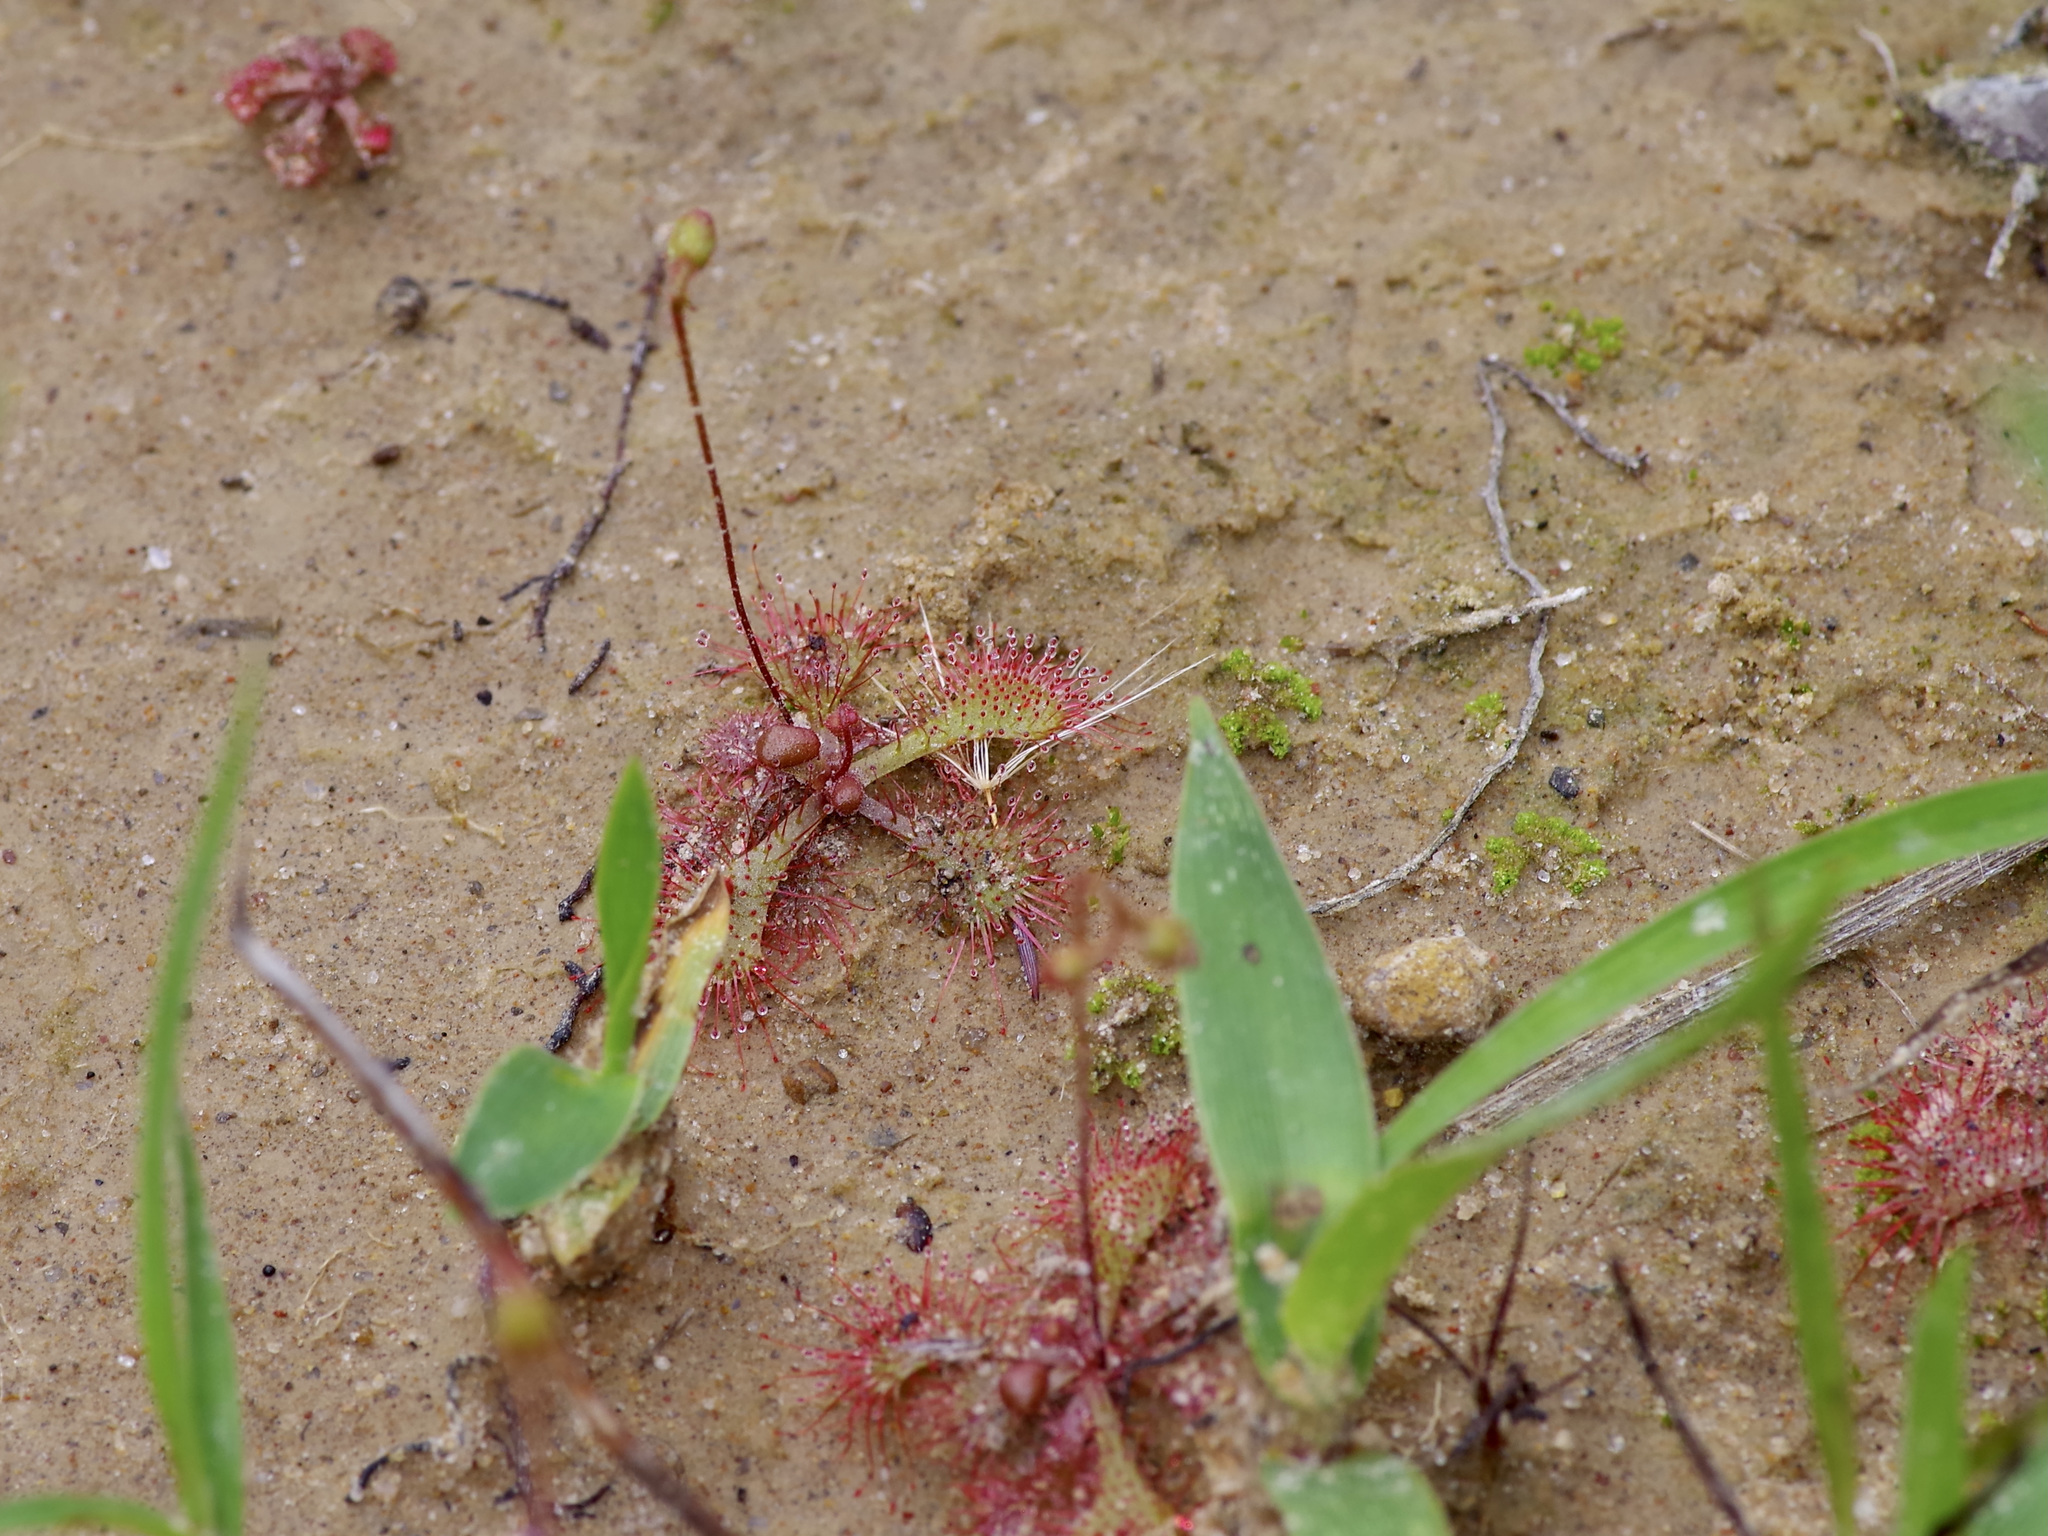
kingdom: Plantae
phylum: Tracheophyta
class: Magnoliopsida
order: Caryophyllales
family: Droseraceae
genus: Drosera
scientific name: Drosera brevifolia
